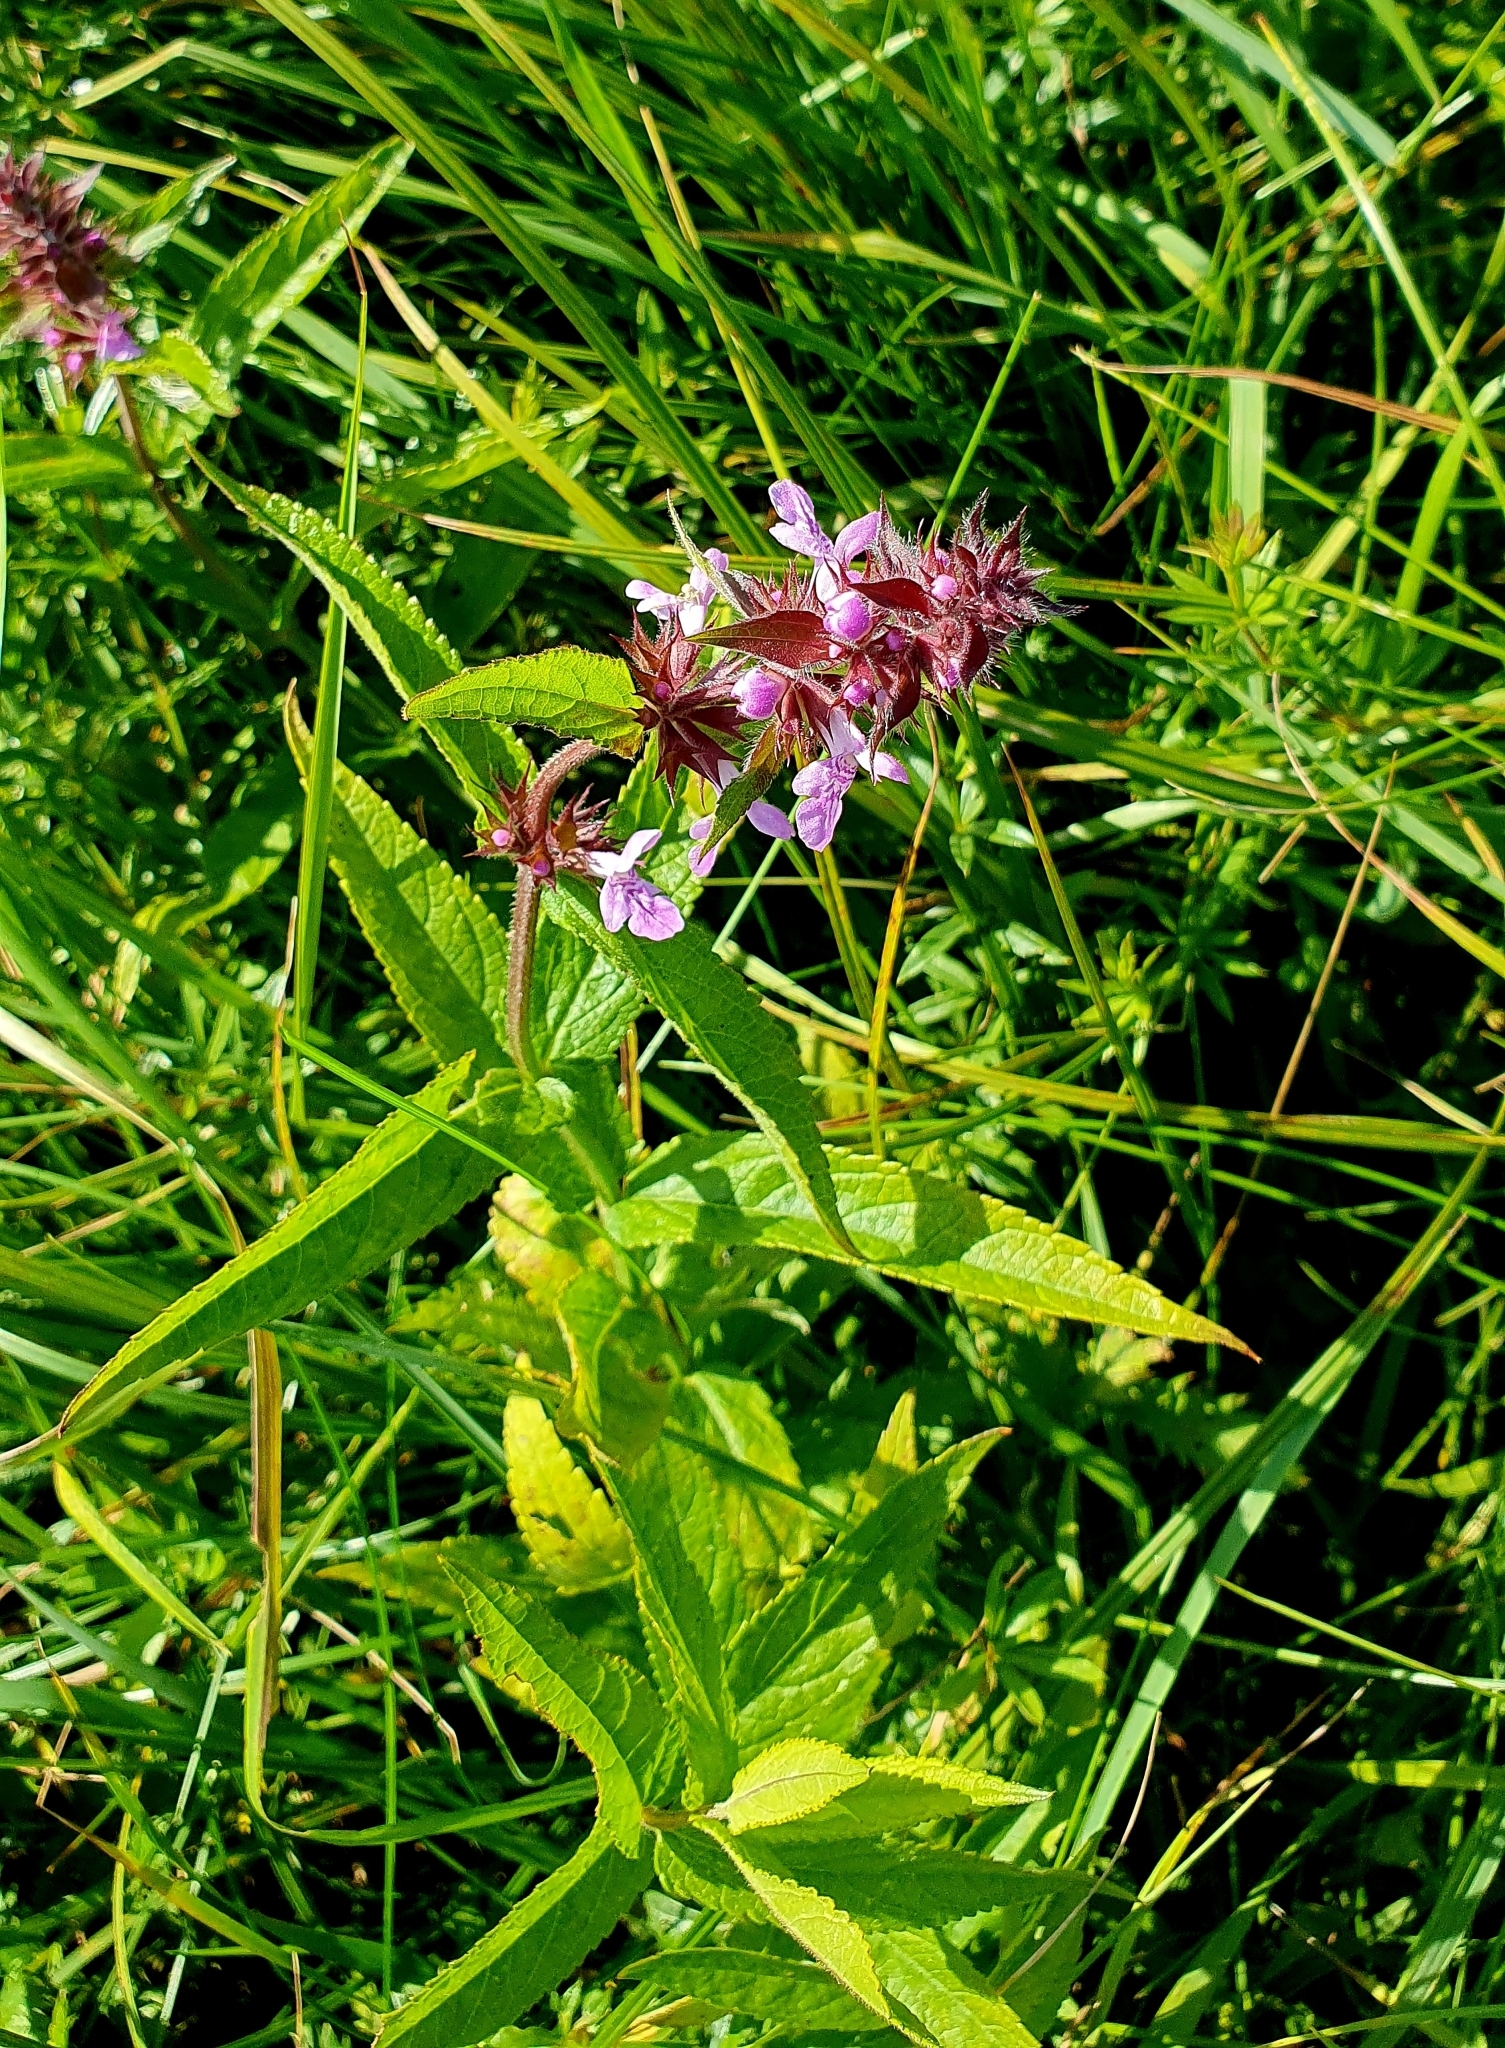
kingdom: Plantae
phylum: Tracheophyta
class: Magnoliopsida
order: Lamiales
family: Lamiaceae
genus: Stachys
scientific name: Stachys palustris
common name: Marsh woundwort
